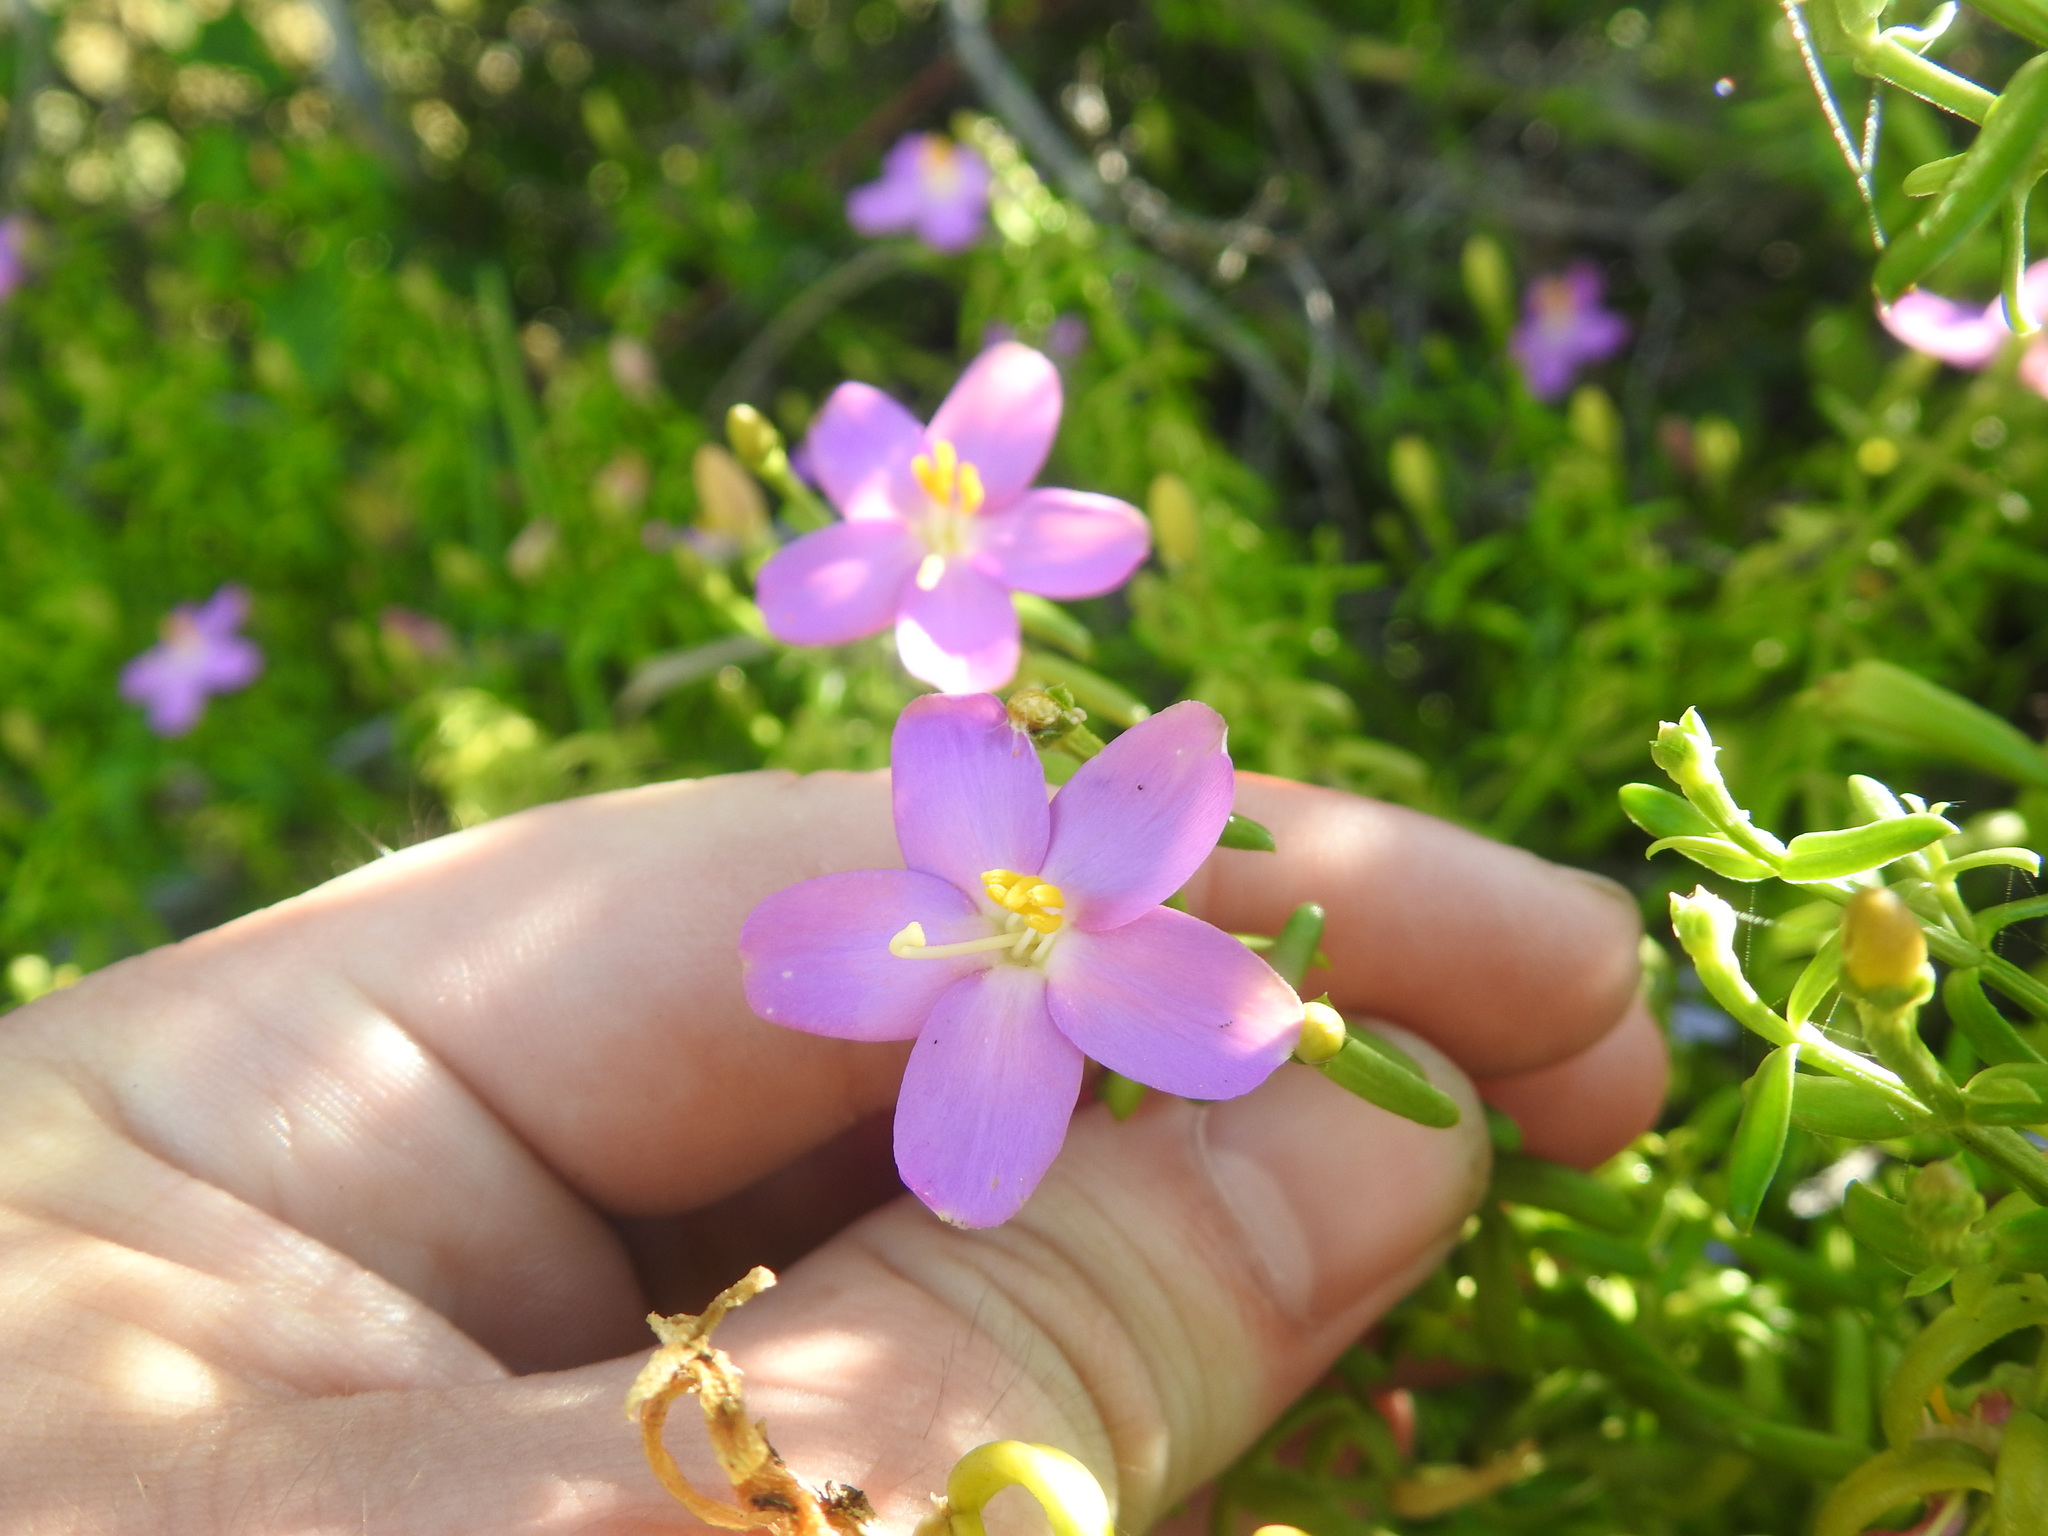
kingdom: Plantae
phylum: Tracheophyta
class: Magnoliopsida
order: Gentianales
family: Gentianaceae
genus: Chironia
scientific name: Chironia baccifera
